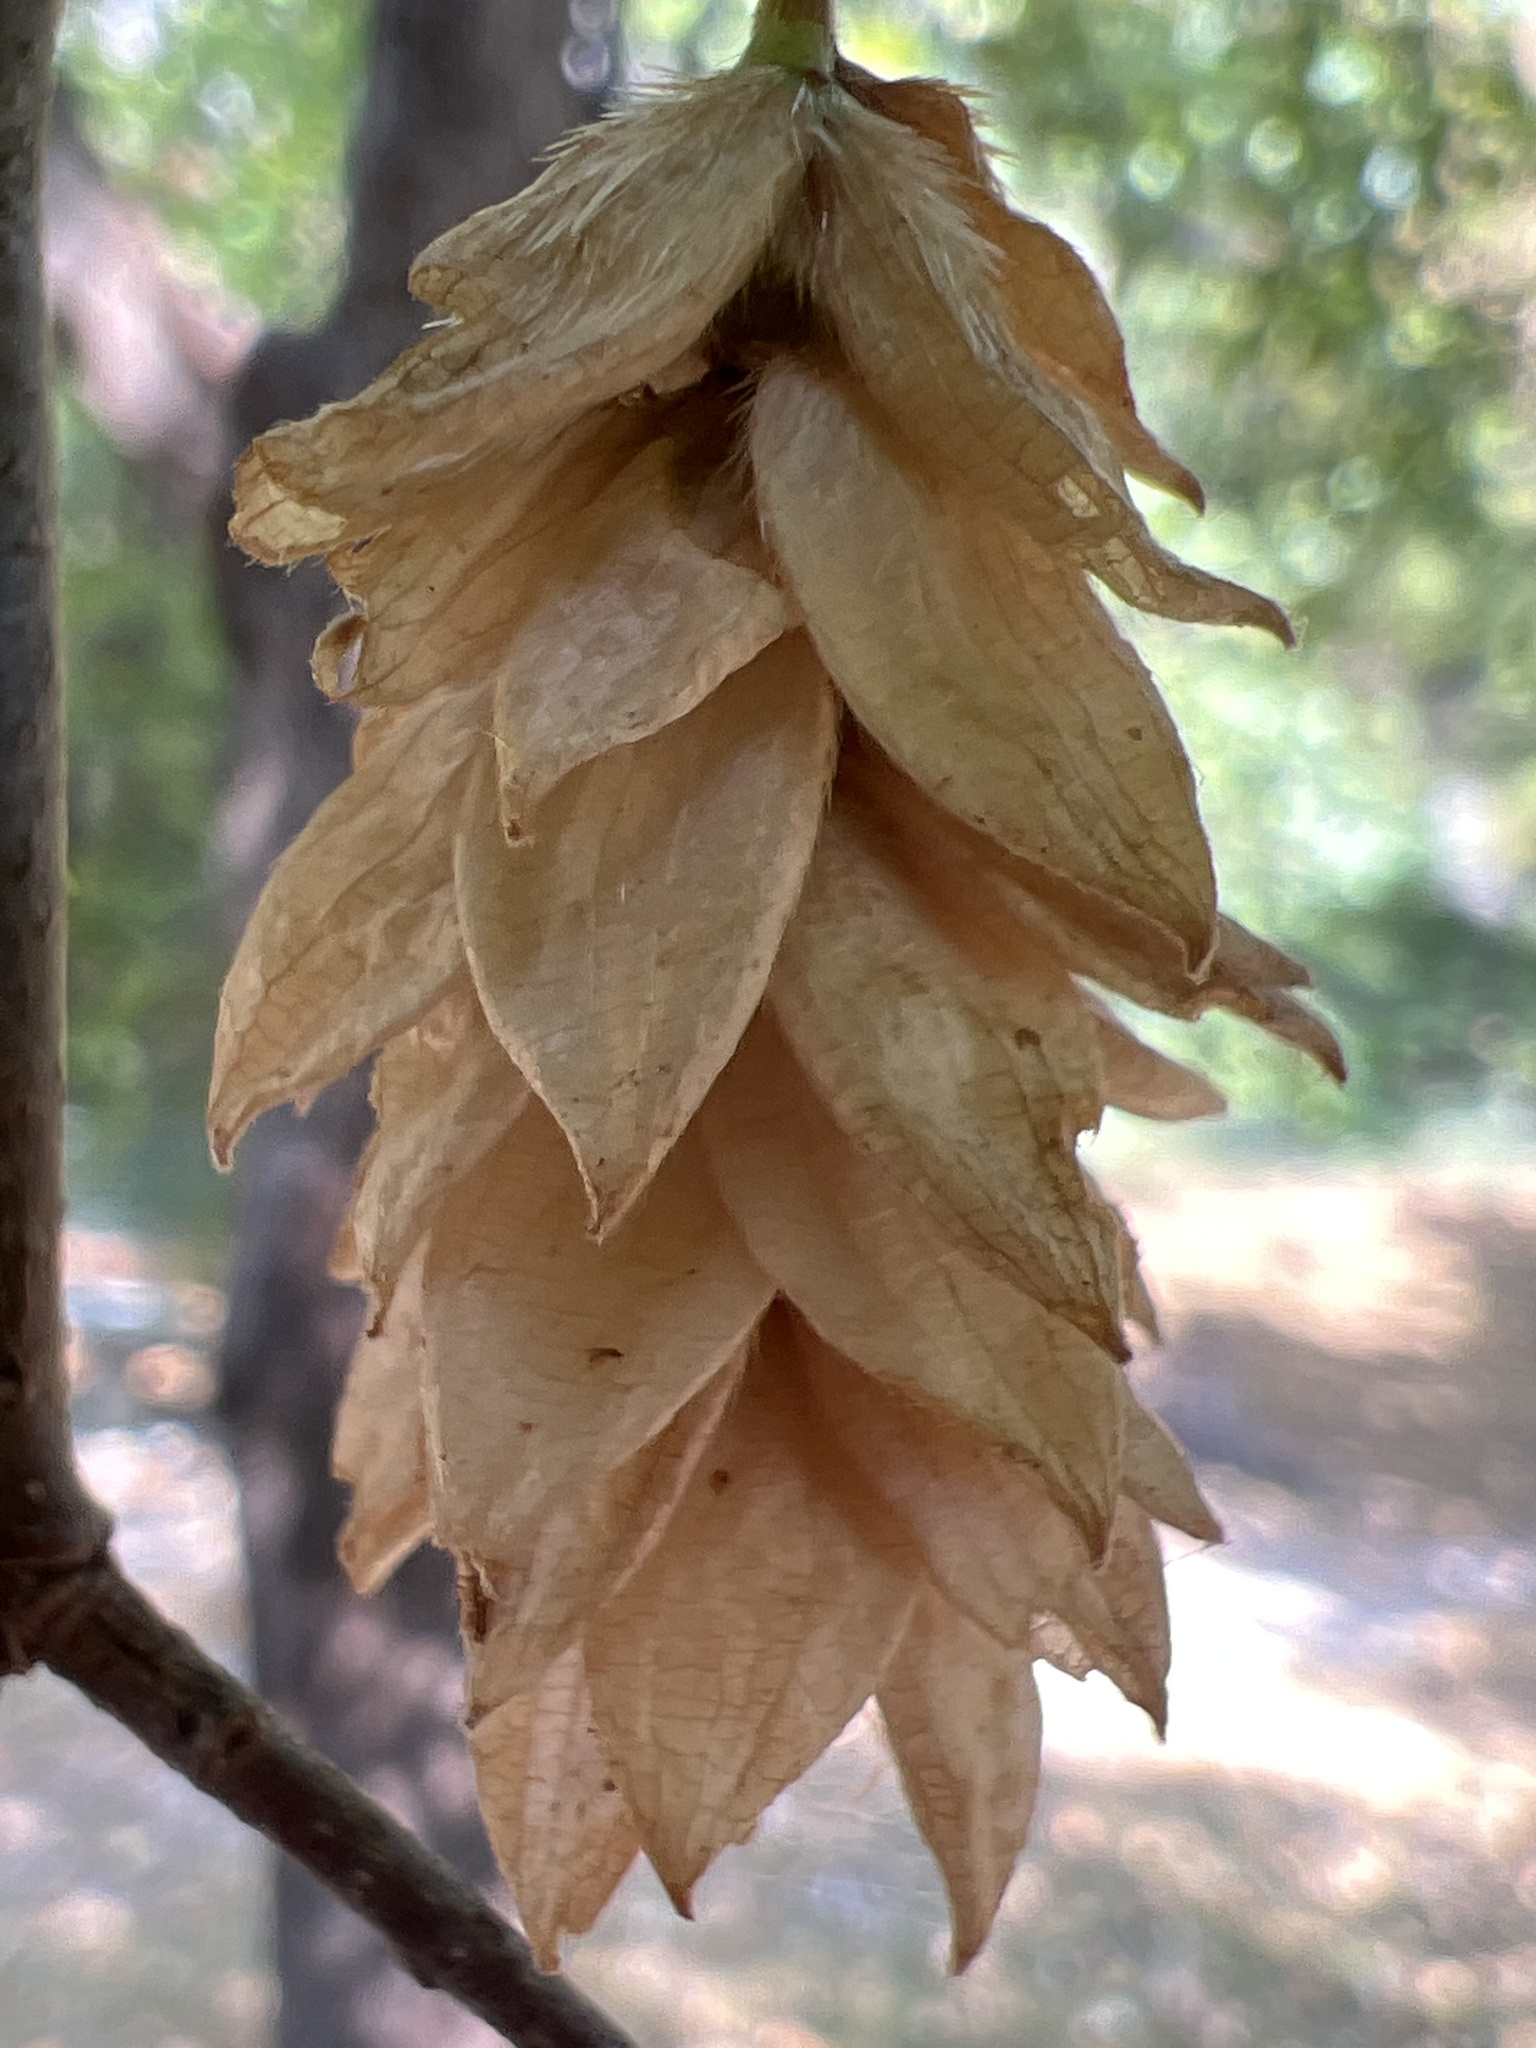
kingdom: Plantae
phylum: Tracheophyta
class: Magnoliopsida
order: Fagales
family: Betulaceae
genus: Ostrya
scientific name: Ostrya carpinifolia
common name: European hop-hornbeam
